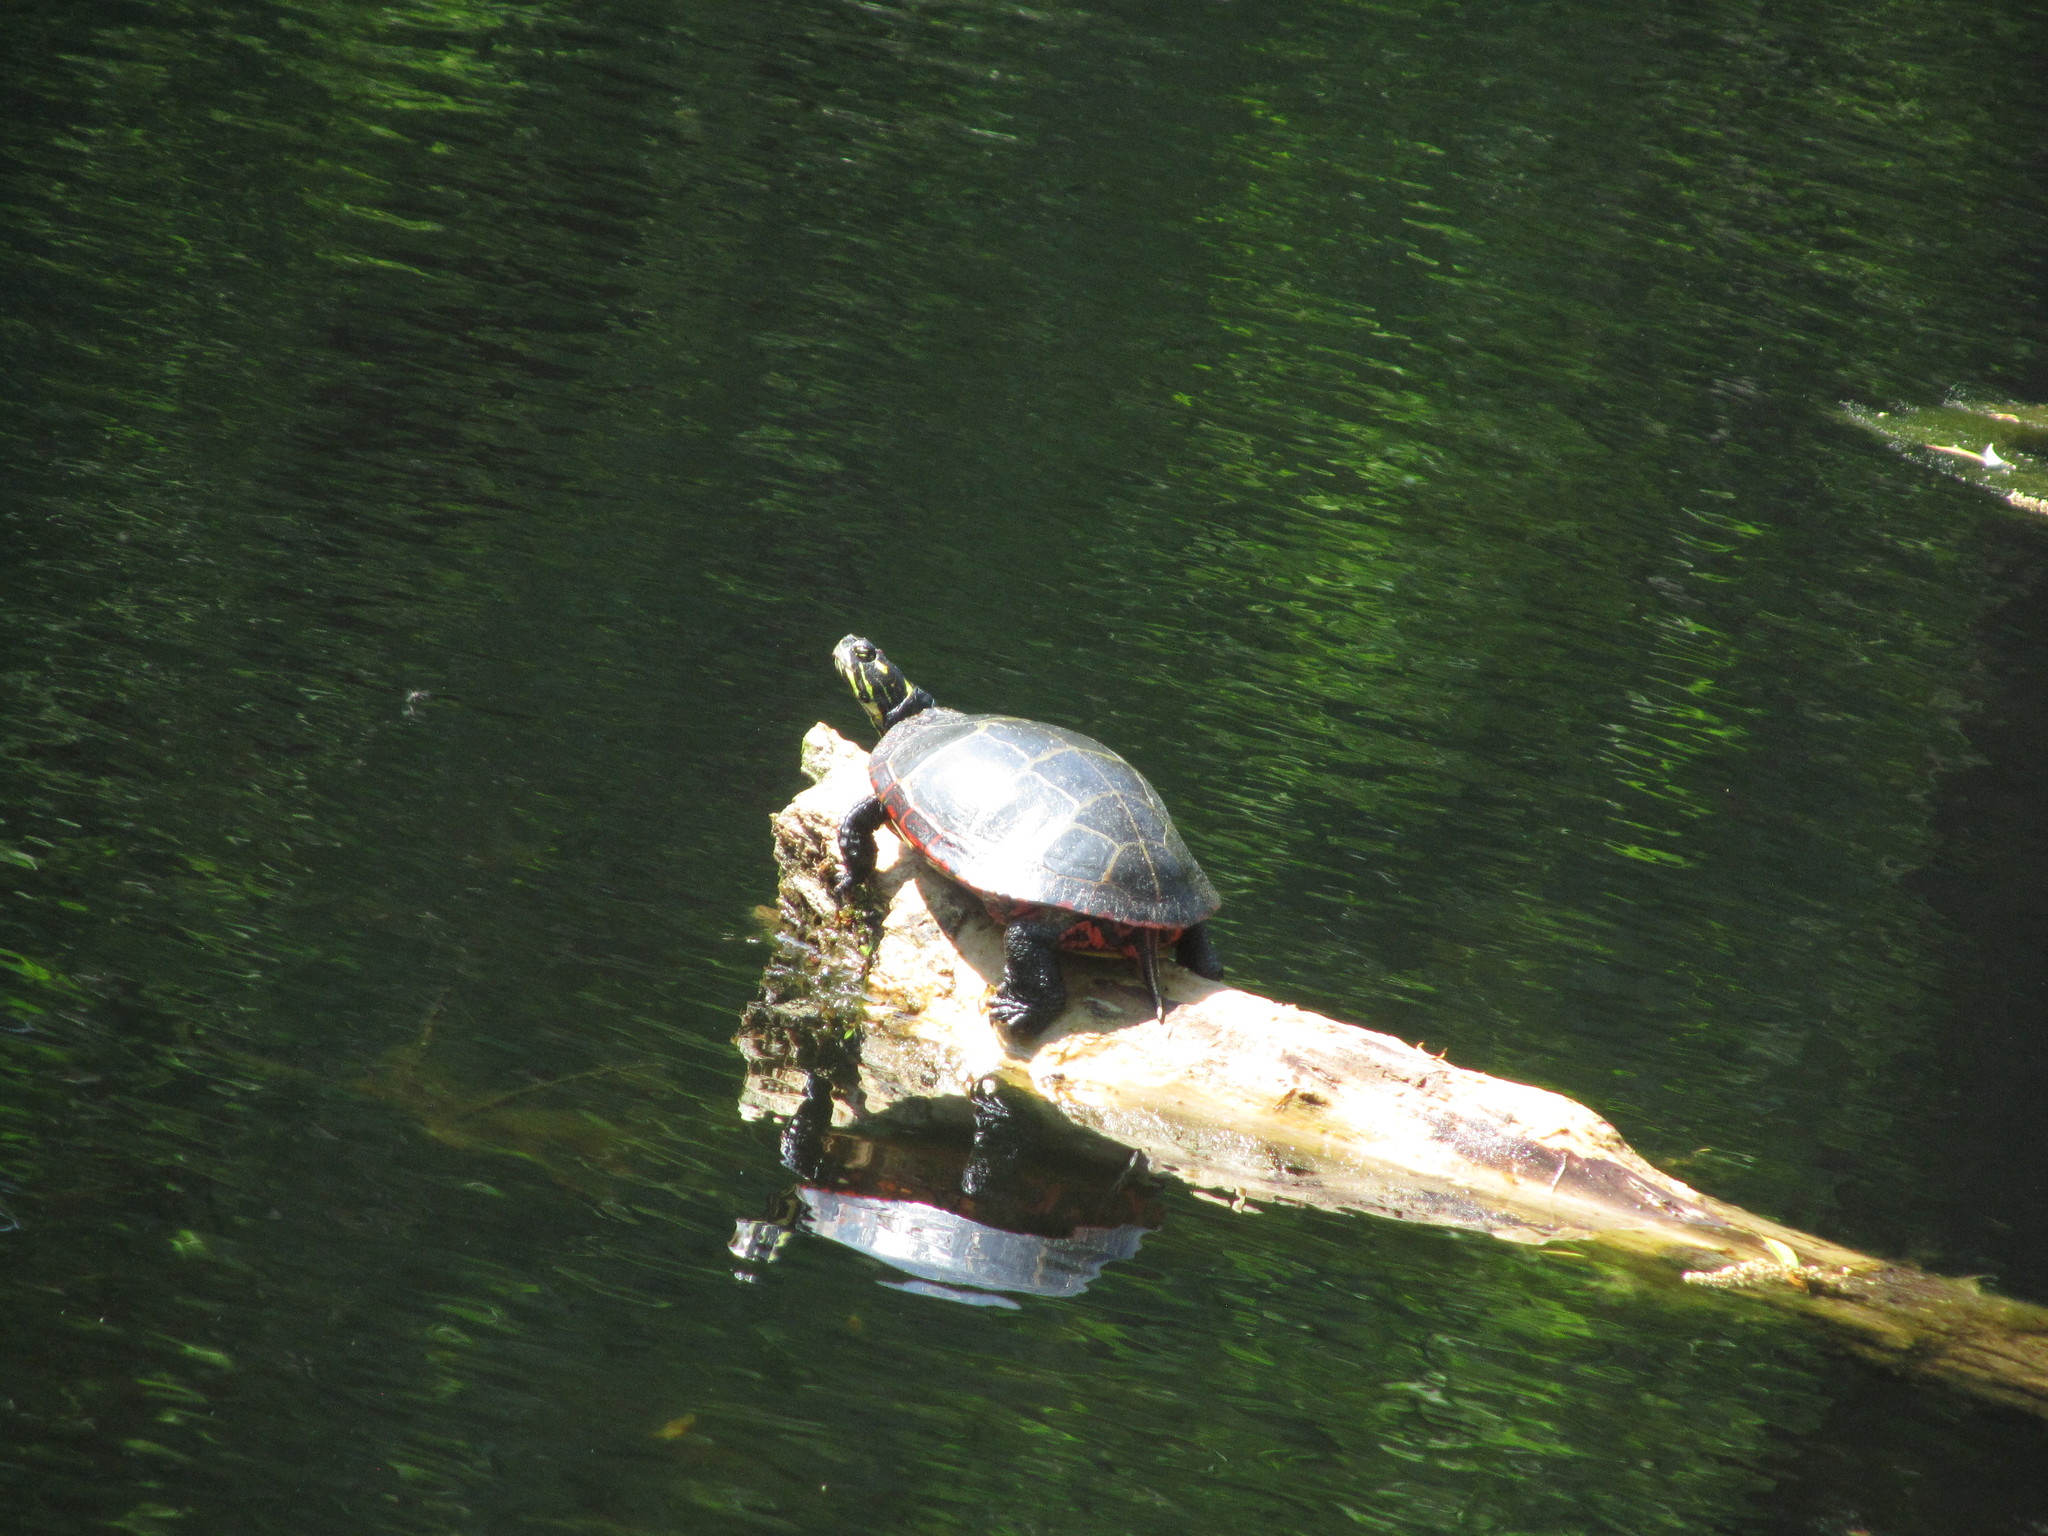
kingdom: Animalia
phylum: Chordata
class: Testudines
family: Emydidae
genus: Chrysemys
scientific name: Chrysemys picta
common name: Painted turtle
